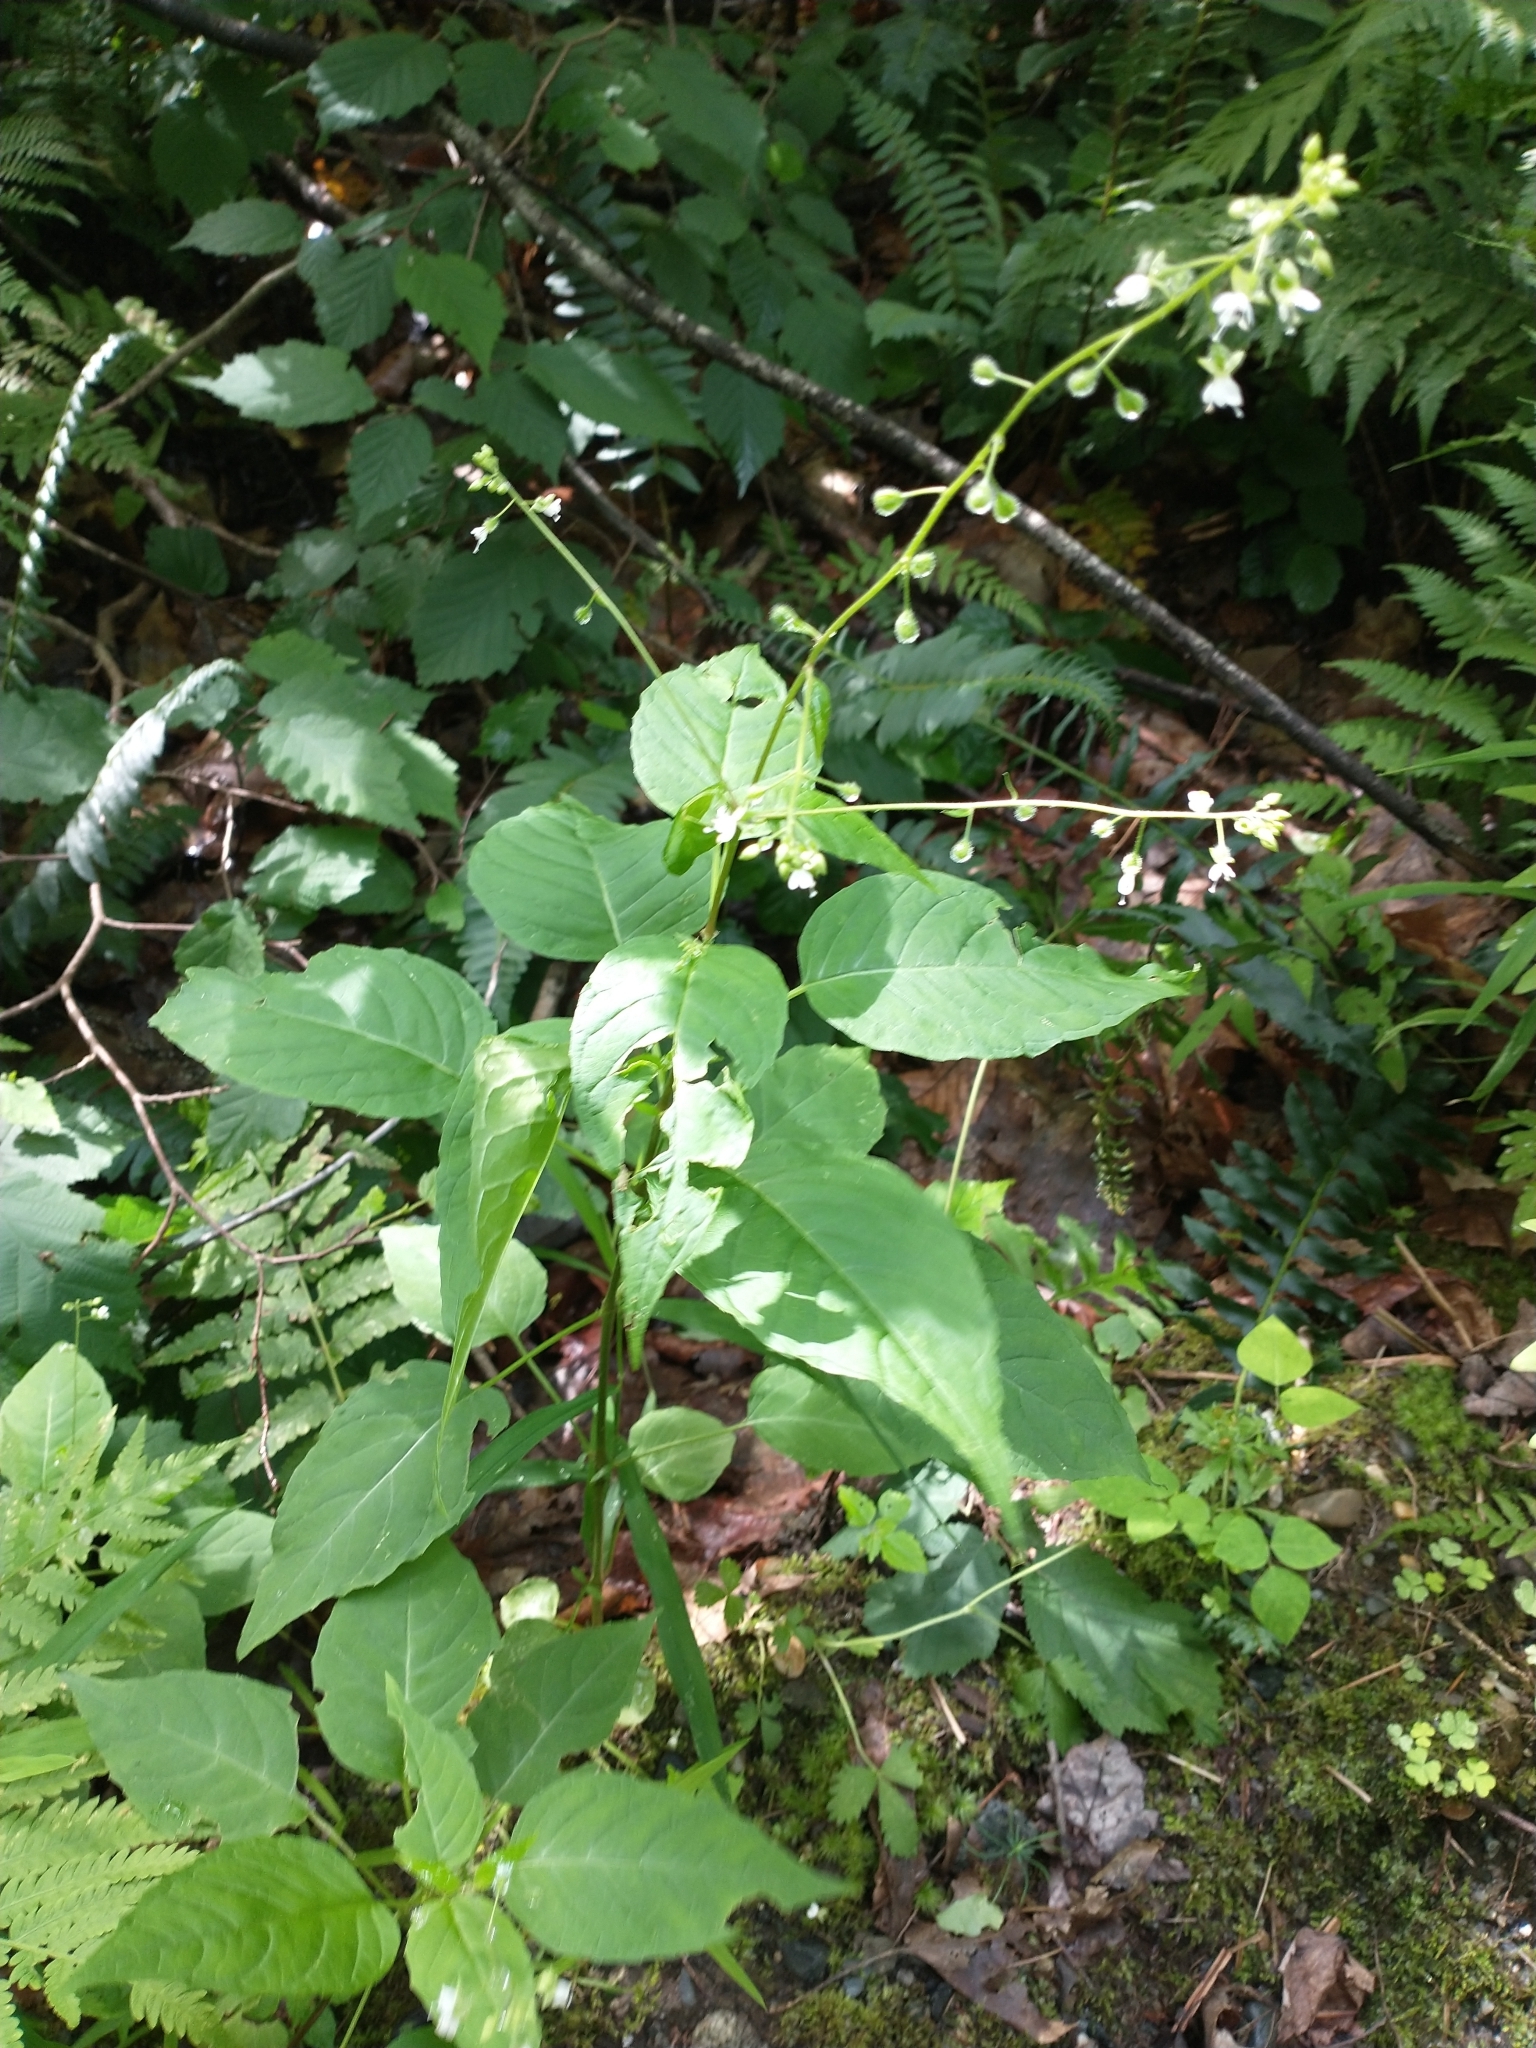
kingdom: Plantae
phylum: Tracheophyta
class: Magnoliopsida
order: Myrtales
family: Onagraceae
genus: Circaea
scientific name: Circaea canadensis
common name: Broad-leaved enchanter's nightshade
